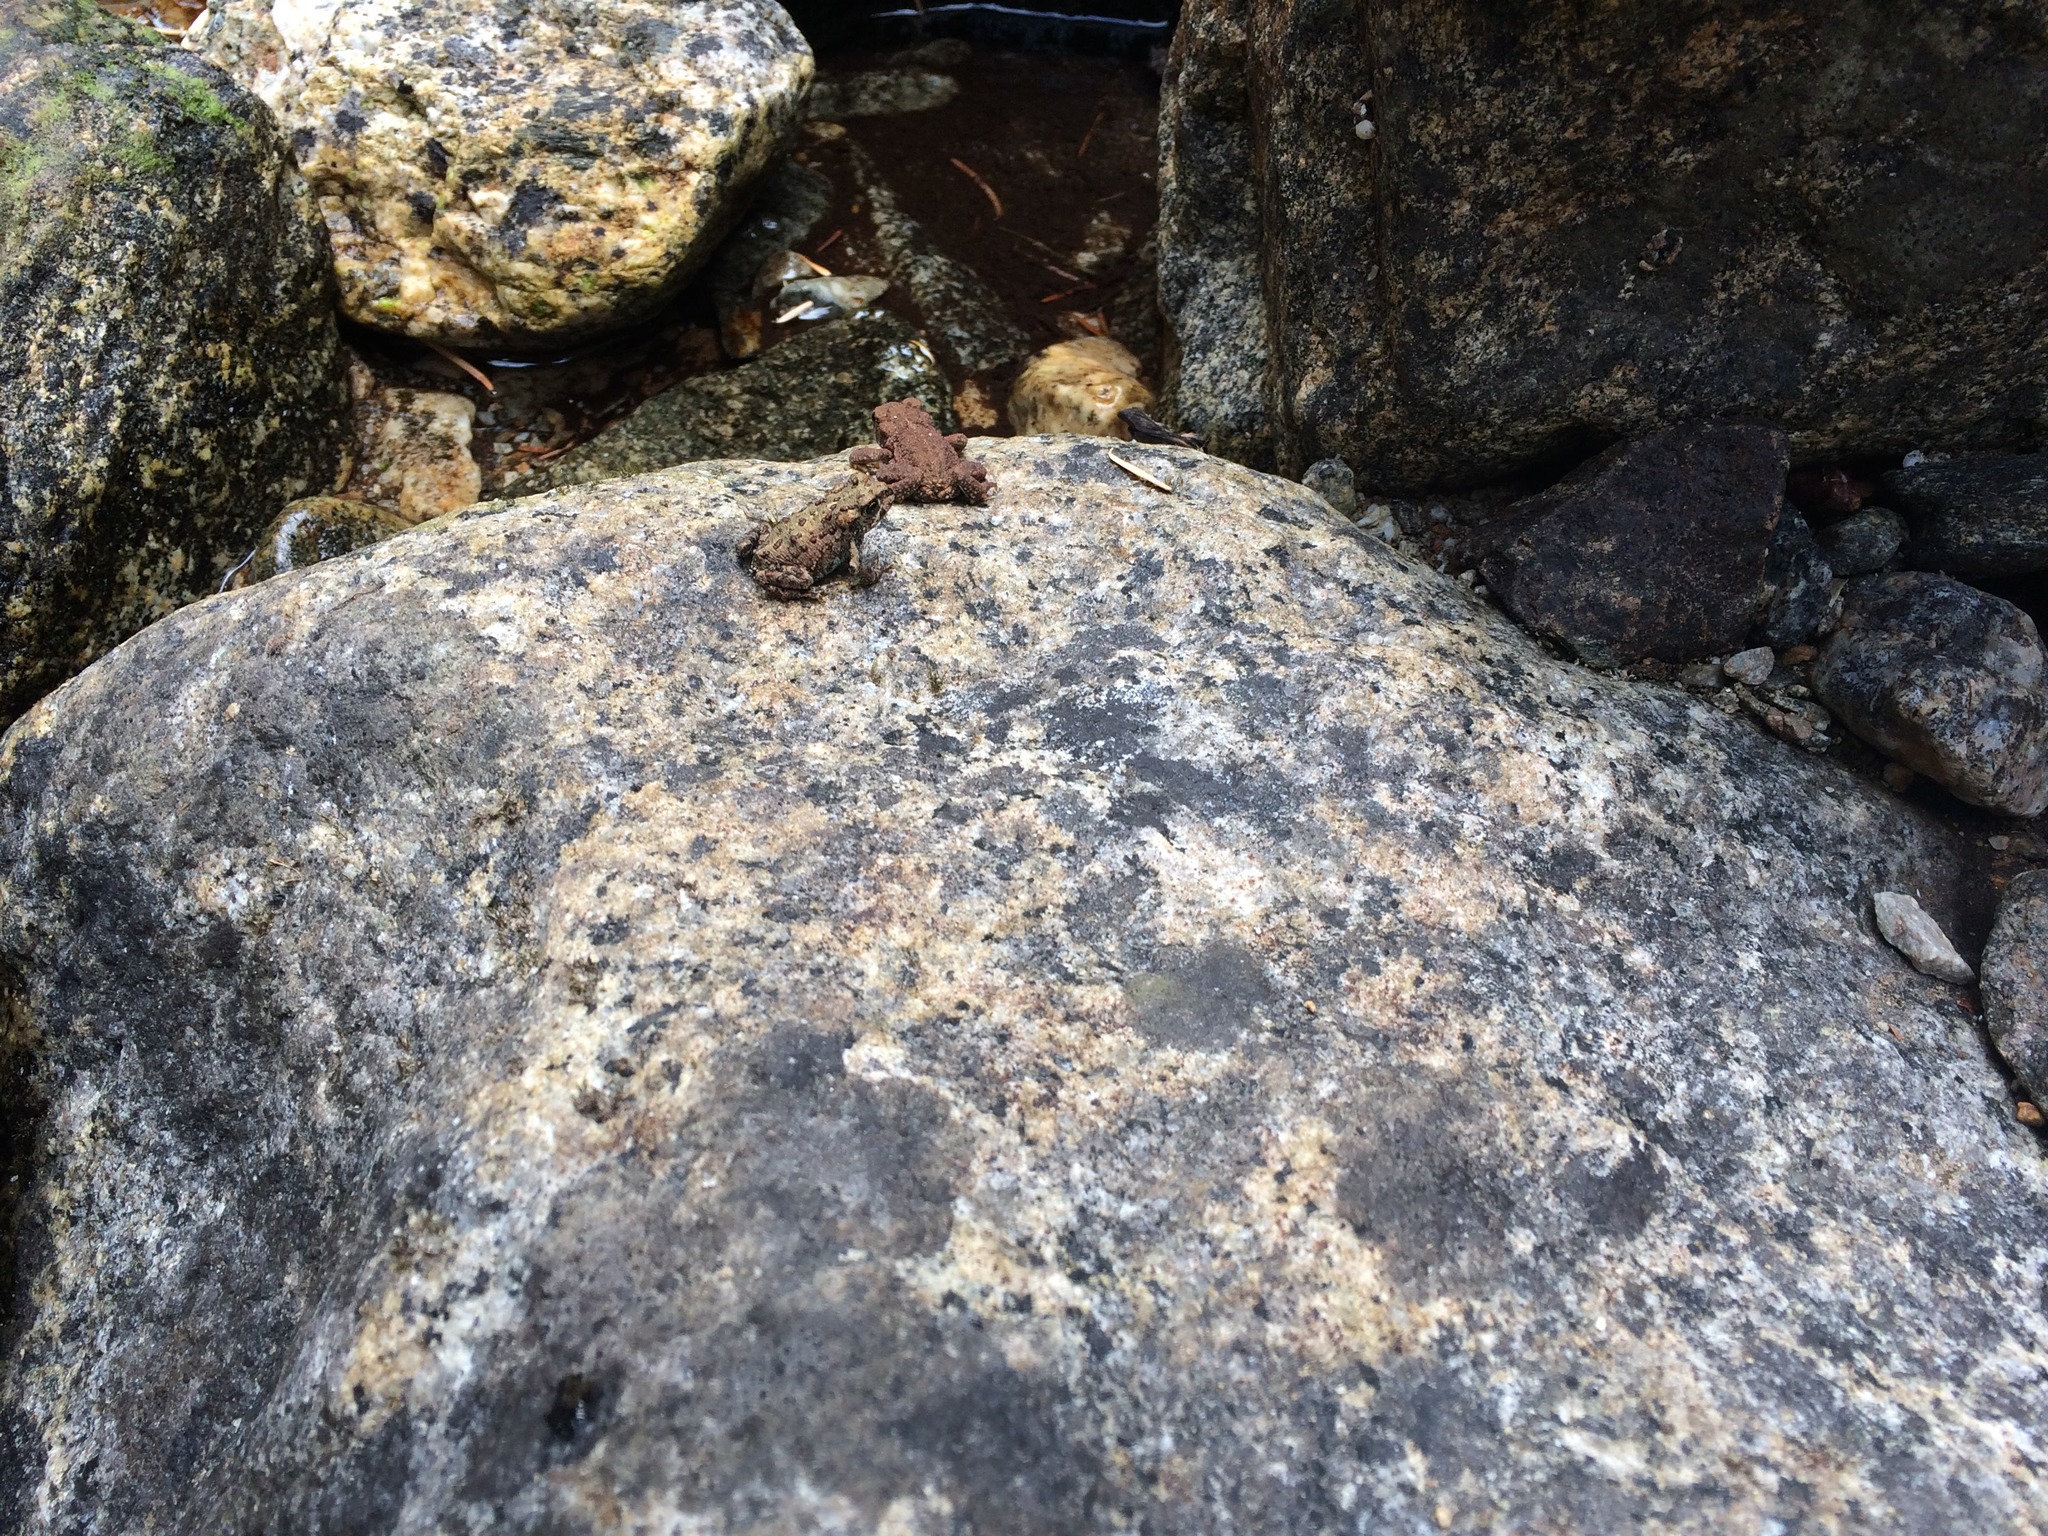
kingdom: Animalia
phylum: Chordata
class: Amphibia
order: Anura
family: Bufonidae
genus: Anaxyrus
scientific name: Anaxyrus boreas
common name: Western toad
